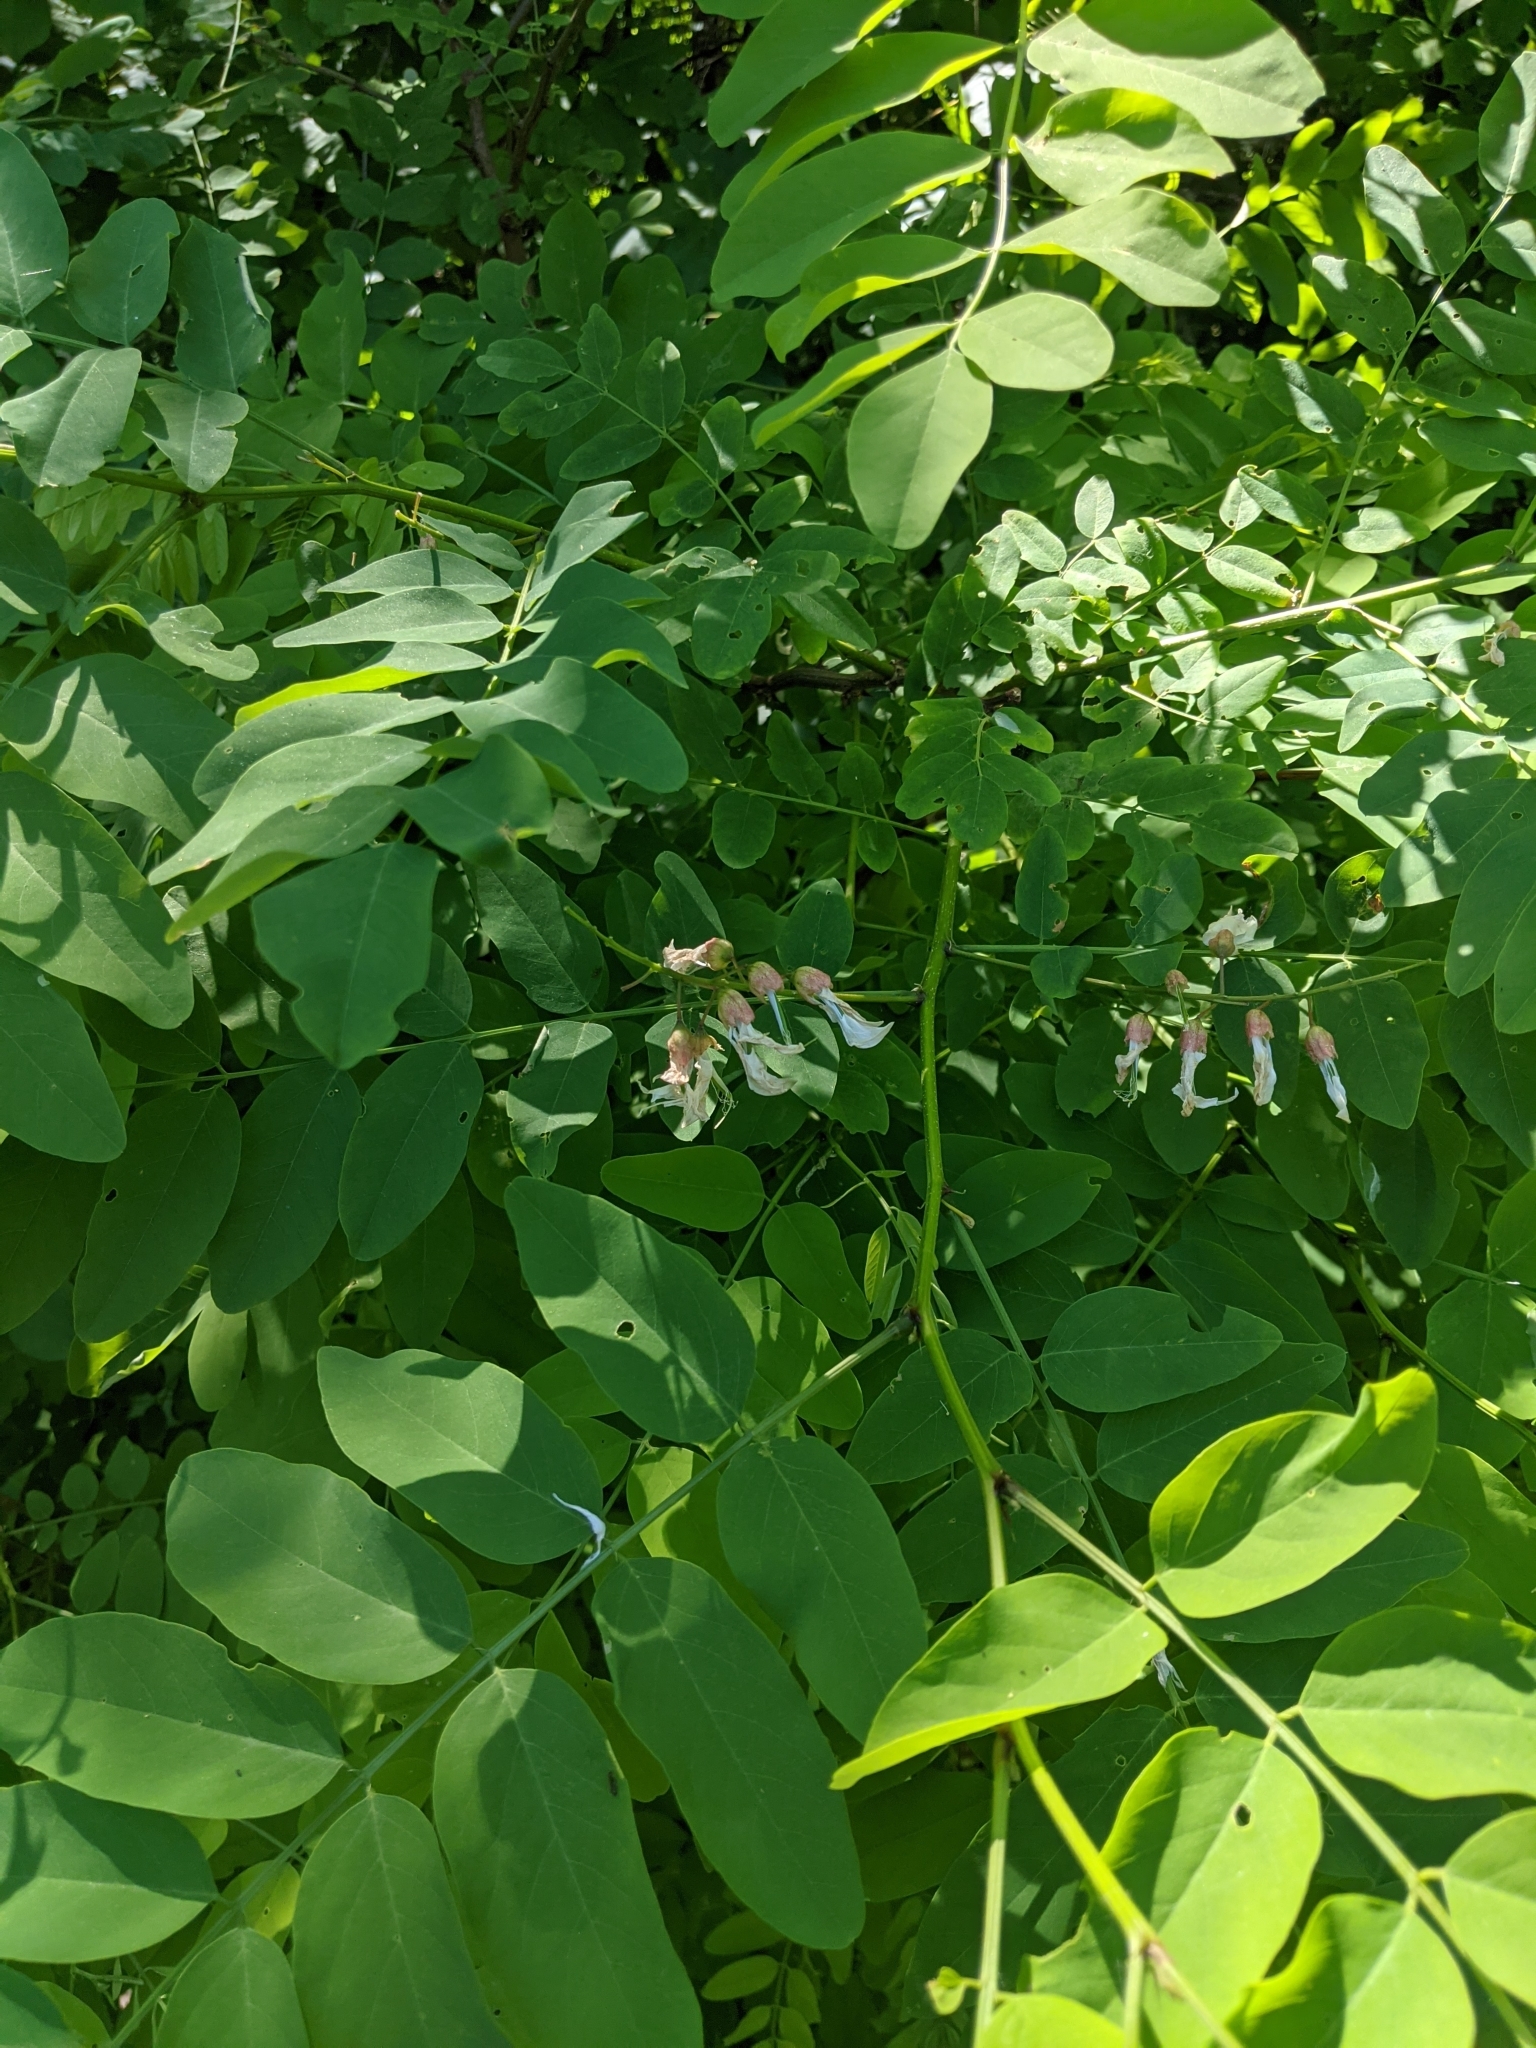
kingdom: Plantae
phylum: Tracheophyta
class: Magnoliopsida
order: Fabales
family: Fabaceae
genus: Robinia
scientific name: Robinia pseudoacacia
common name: Black locust
